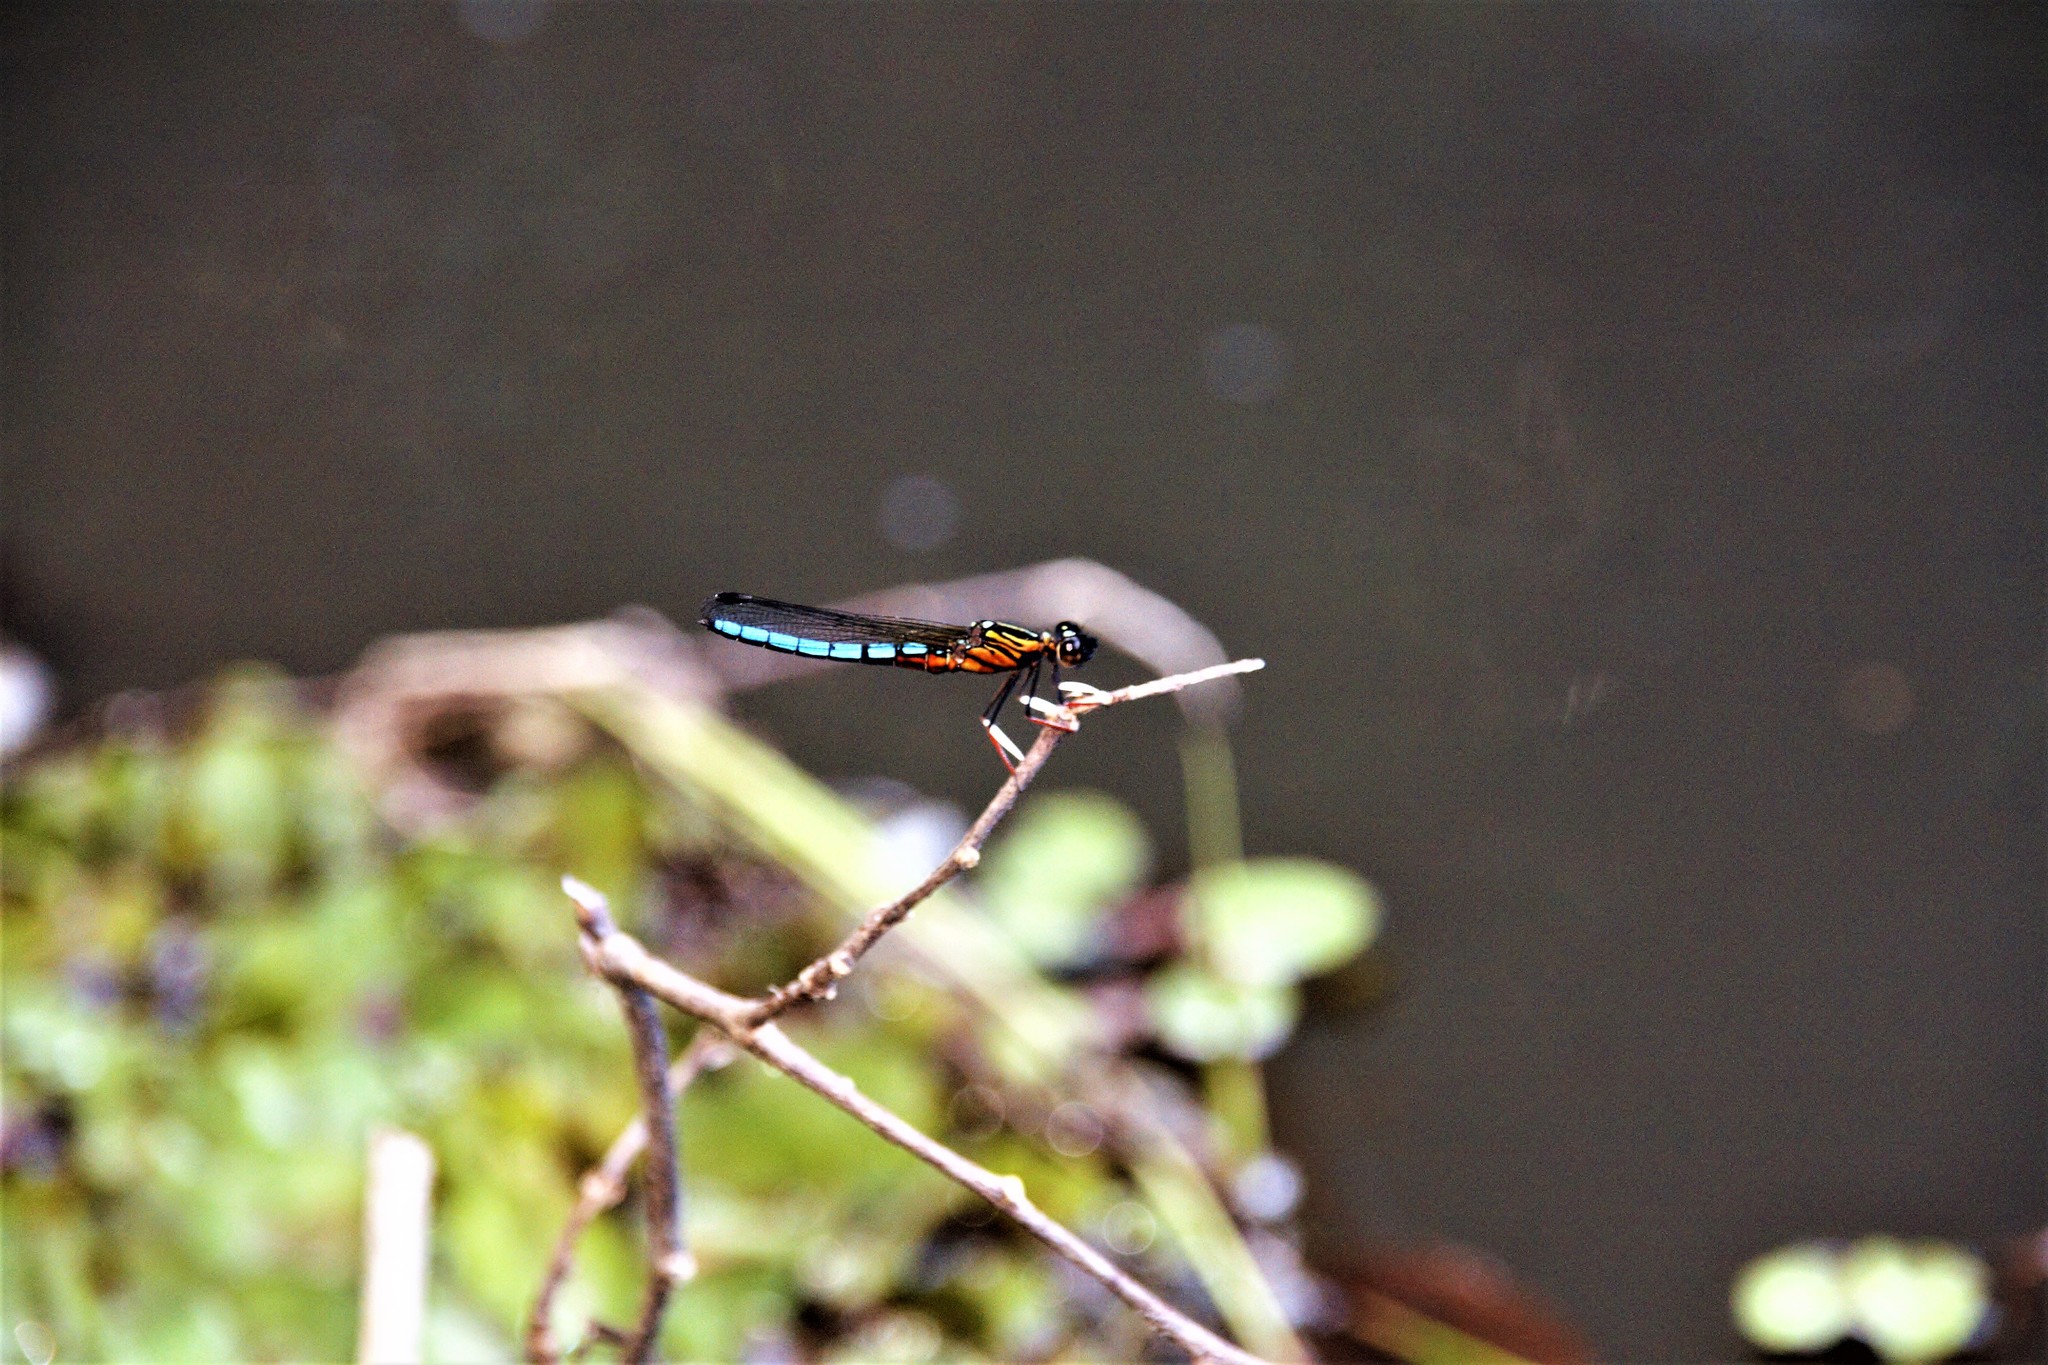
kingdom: Animalia
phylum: Arthropoda
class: Insecta
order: Odonata
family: Chlorocyphidae
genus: Platycypha
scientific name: Platycypha caligata
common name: Dancing jewel
